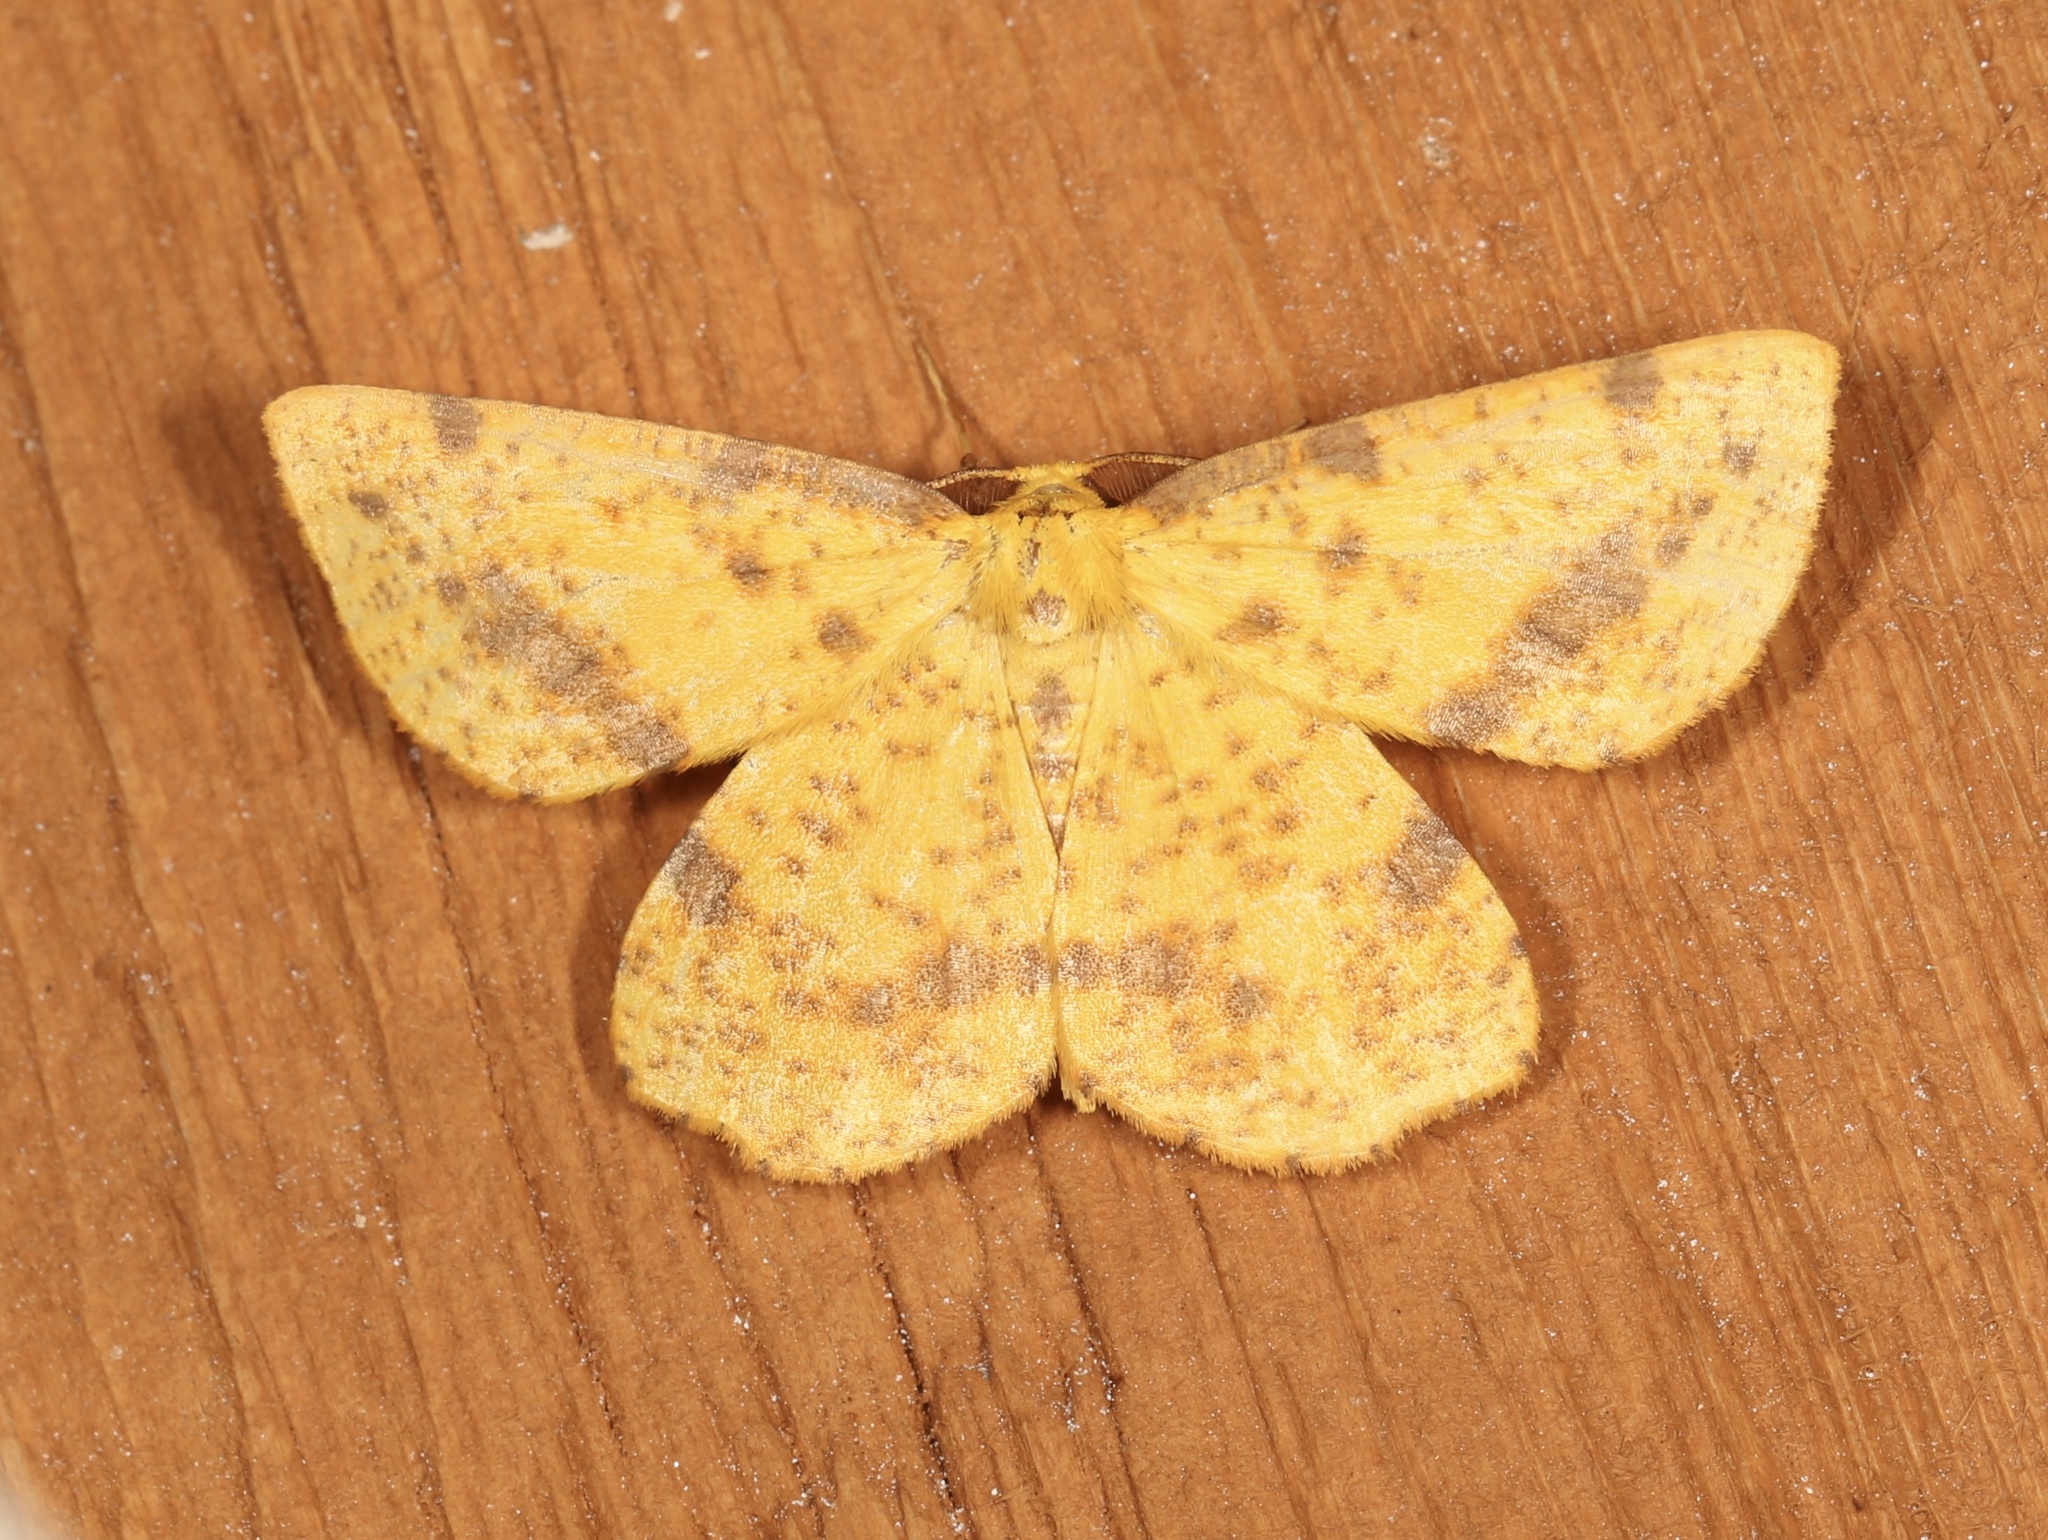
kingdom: Animalia
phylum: Arthropoda
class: Insecta
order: Lepidoptera
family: Geometridae
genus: Xanthotype
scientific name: Xanthotype
